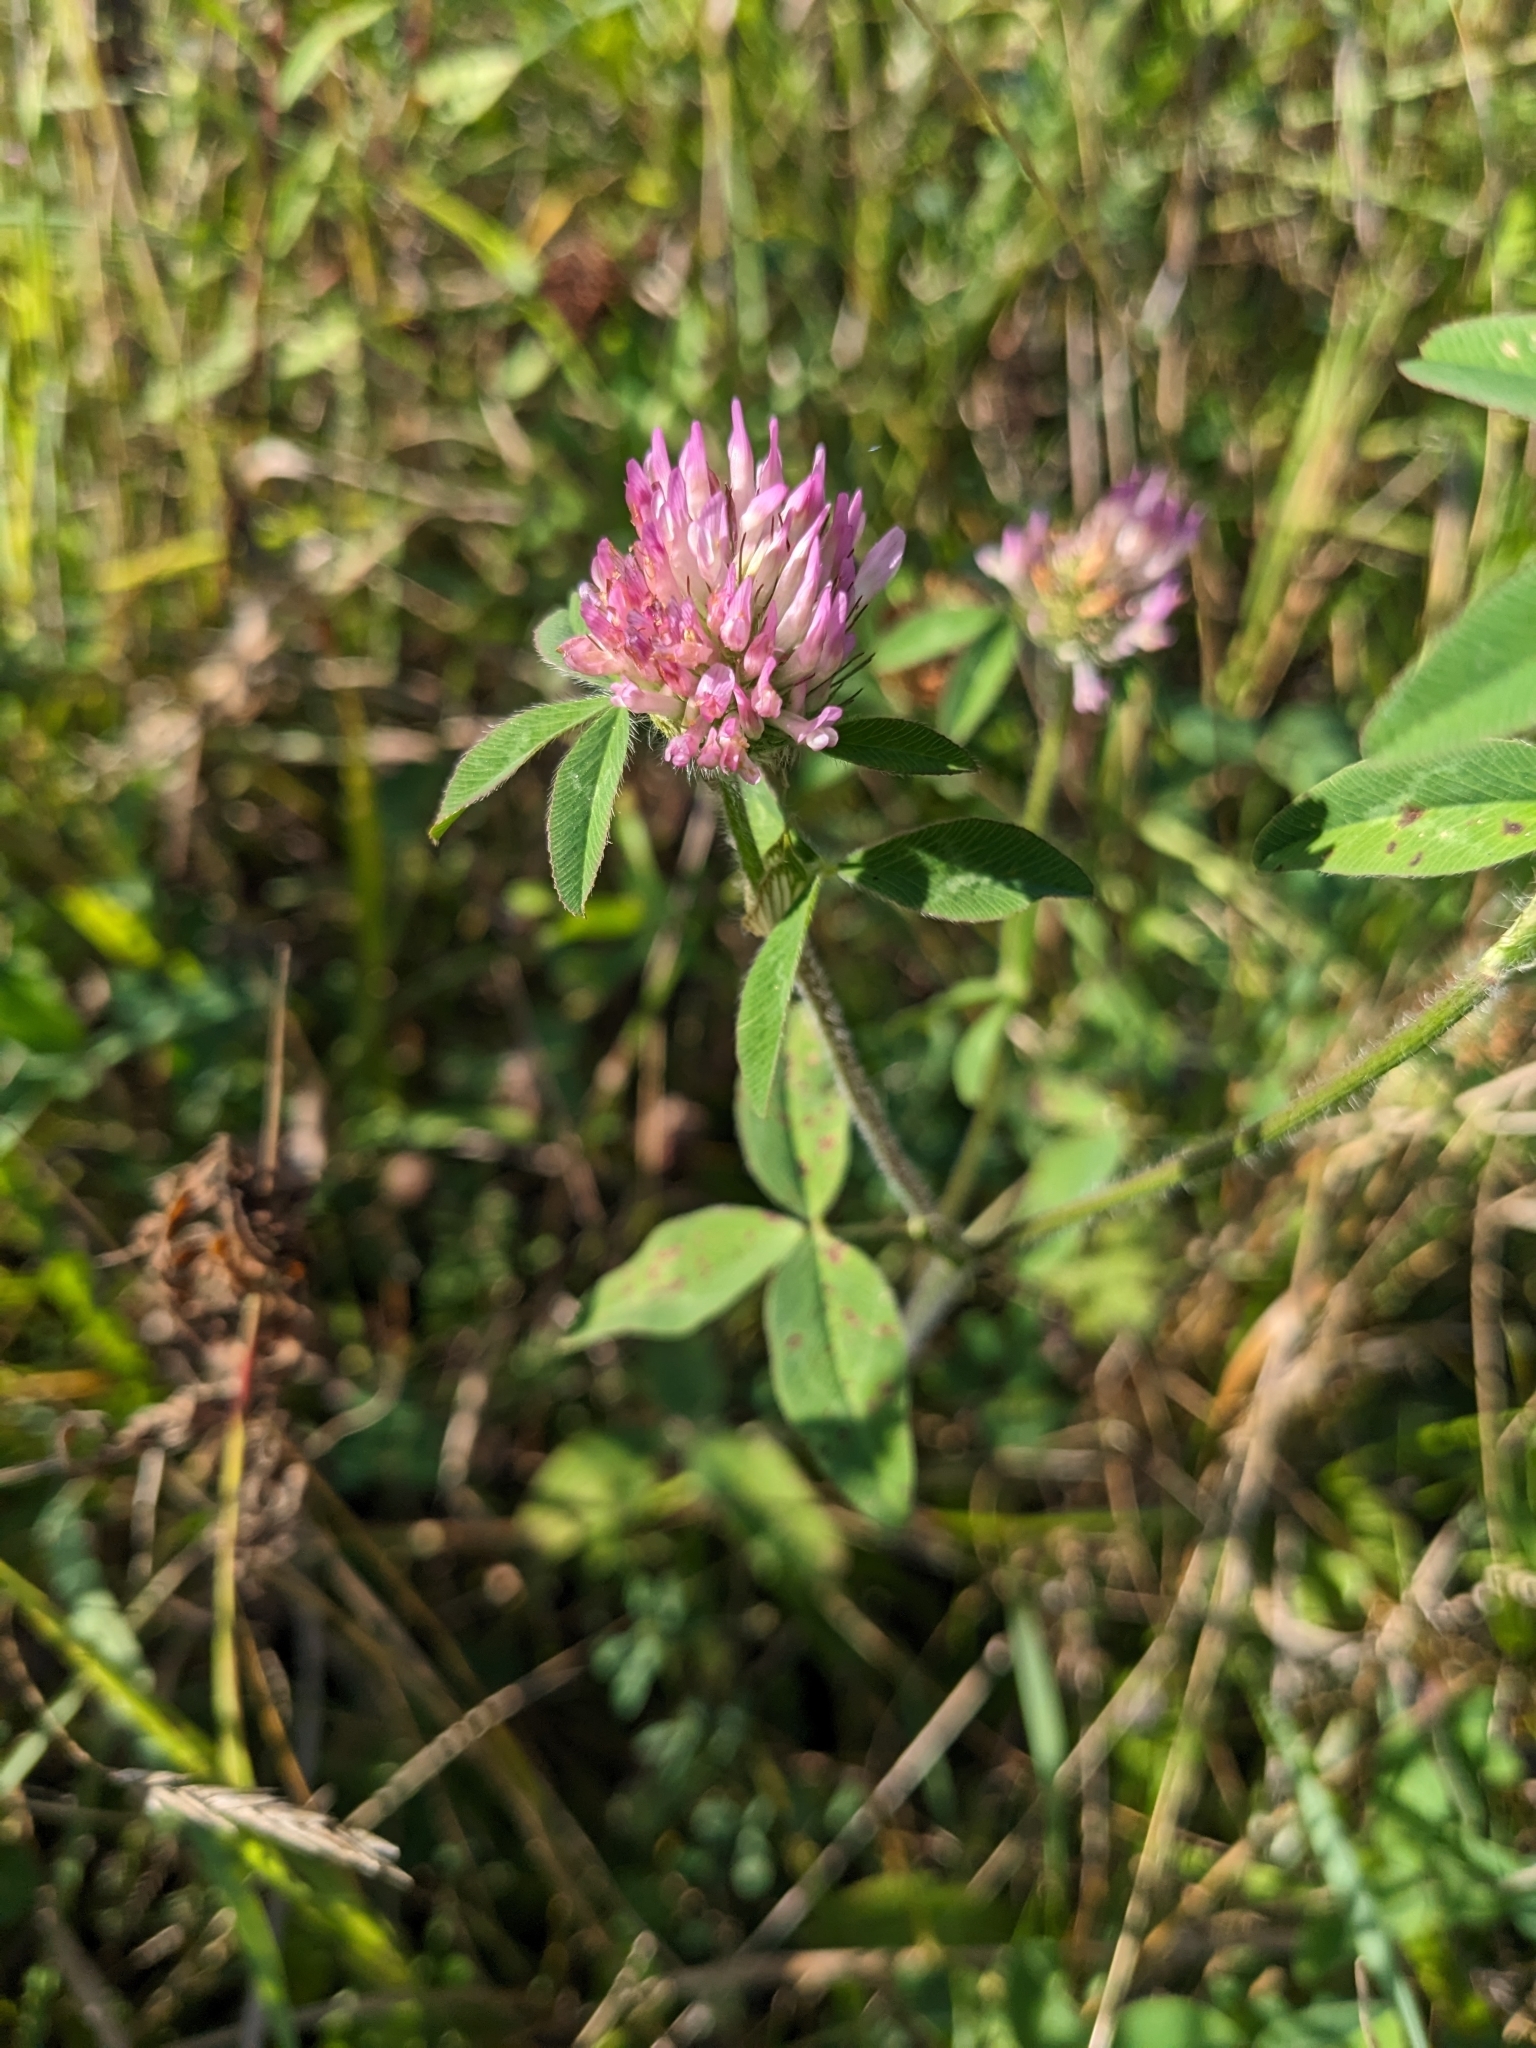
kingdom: Plantae
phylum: Tracheophyta
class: Magnoliopsida
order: Fabales
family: Fabaceae
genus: Trifolium
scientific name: Trifolium pratense
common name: Red clover
